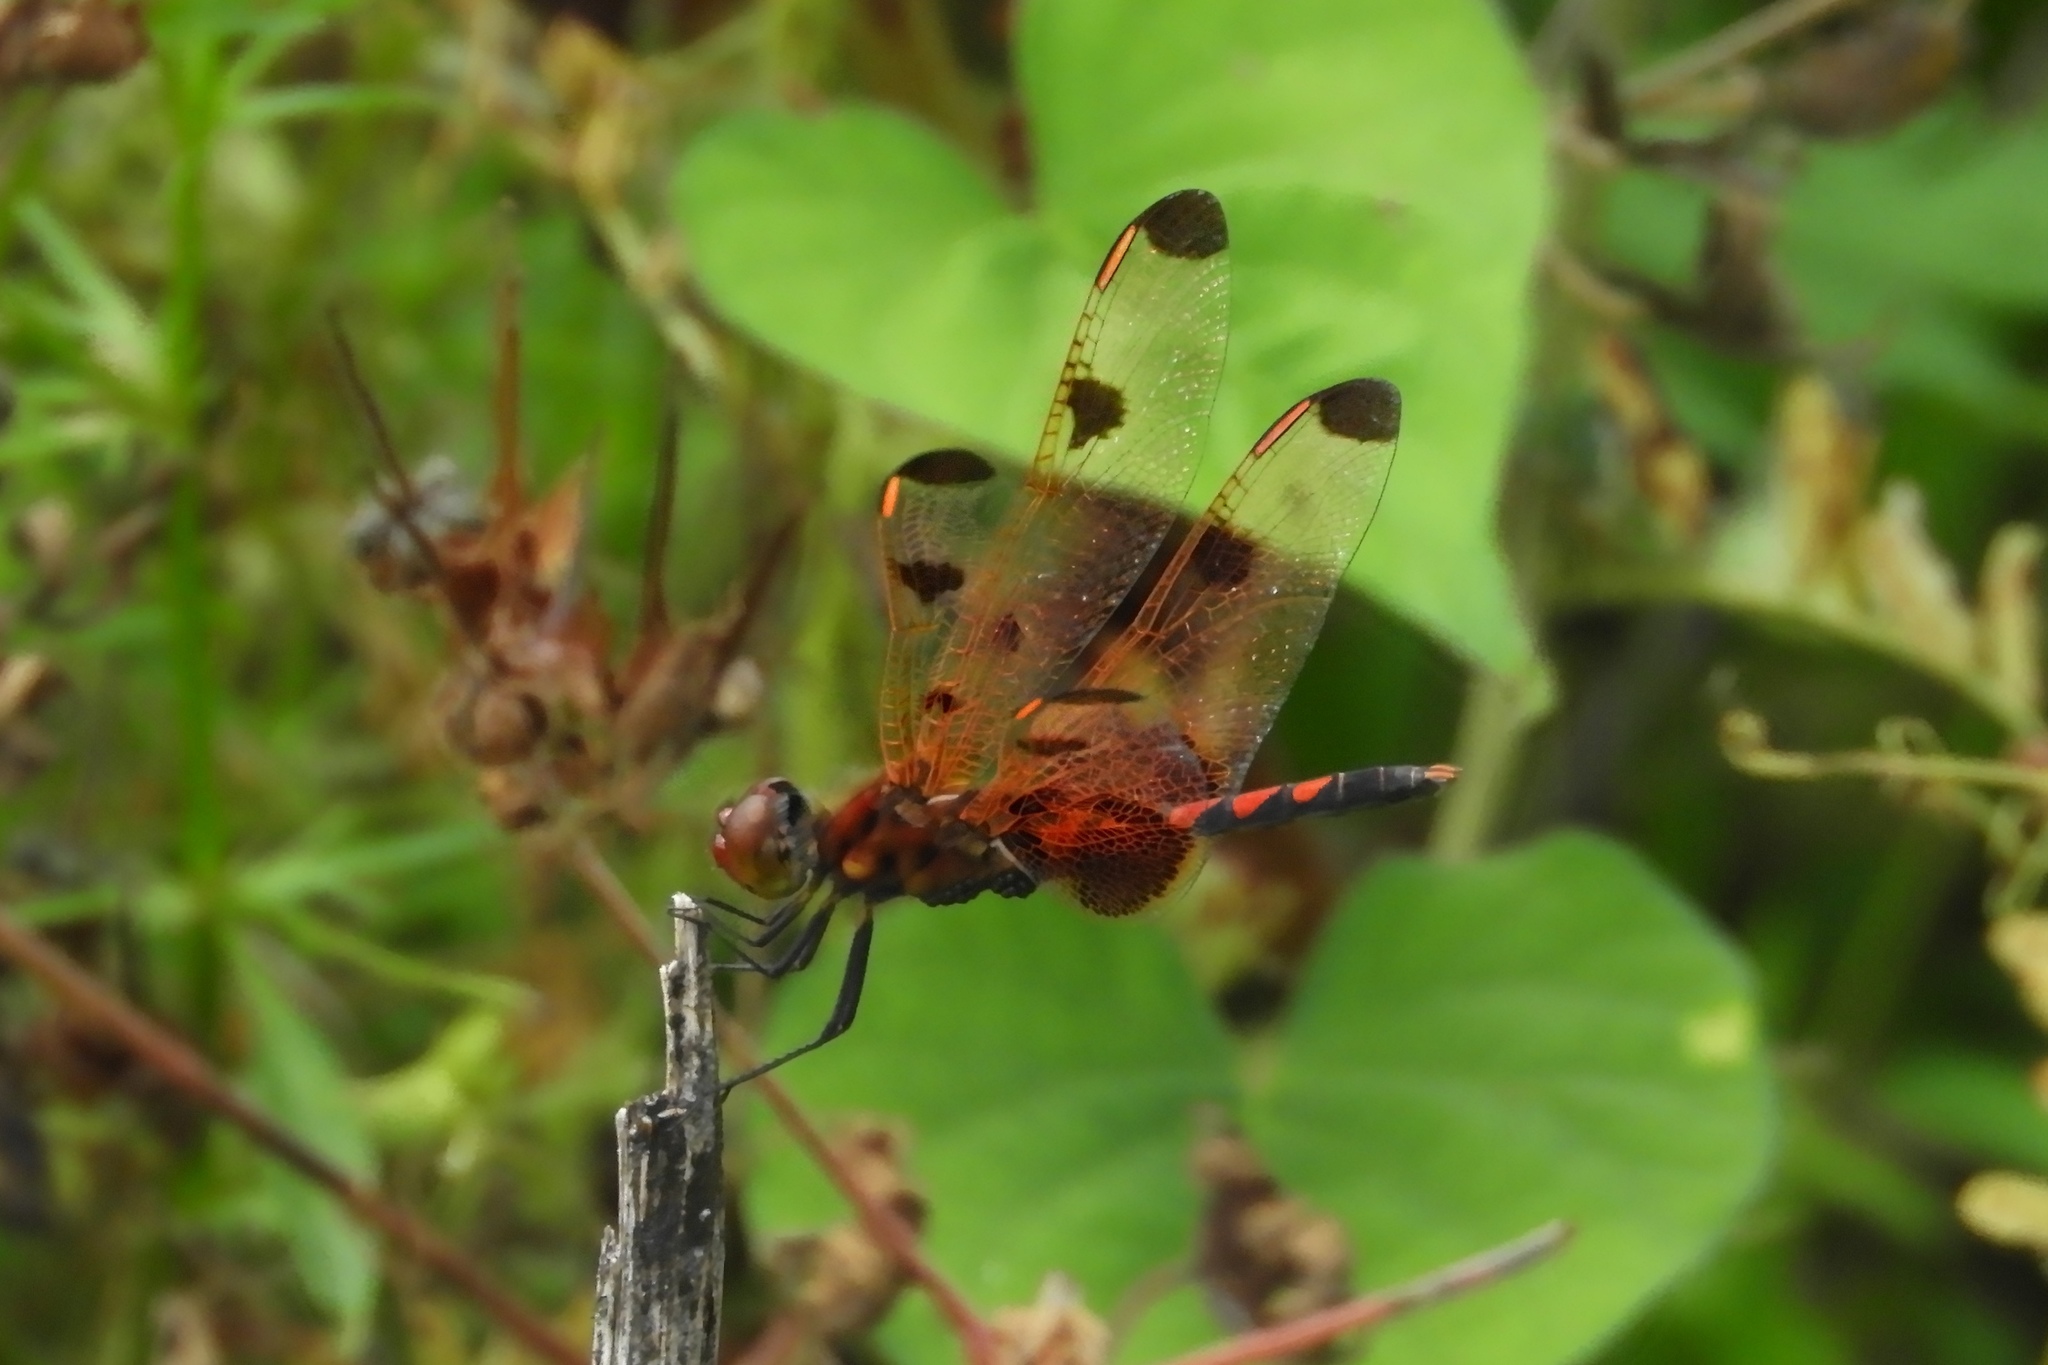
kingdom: Animalia
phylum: Arthropoda
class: Insecta
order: Odonata
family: Libellulidae
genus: Celithemis
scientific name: Celithemis elisa
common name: Calico pennant
